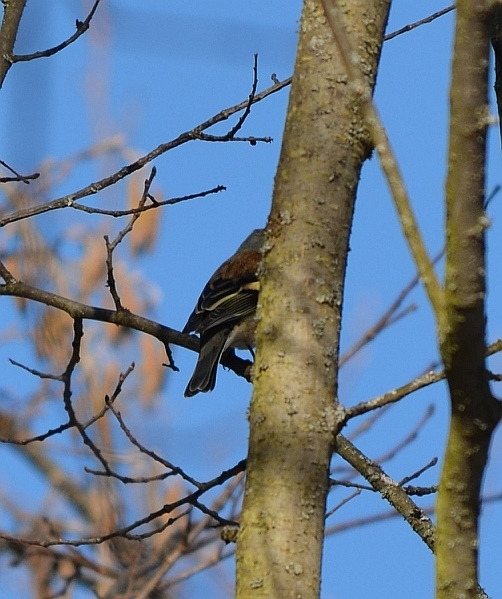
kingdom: Animalia
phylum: Chordata
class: Aves
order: Passeriformes
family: Fringillidae
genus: Fringilla
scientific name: Fringilla coelebs
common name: Common chaffinch
